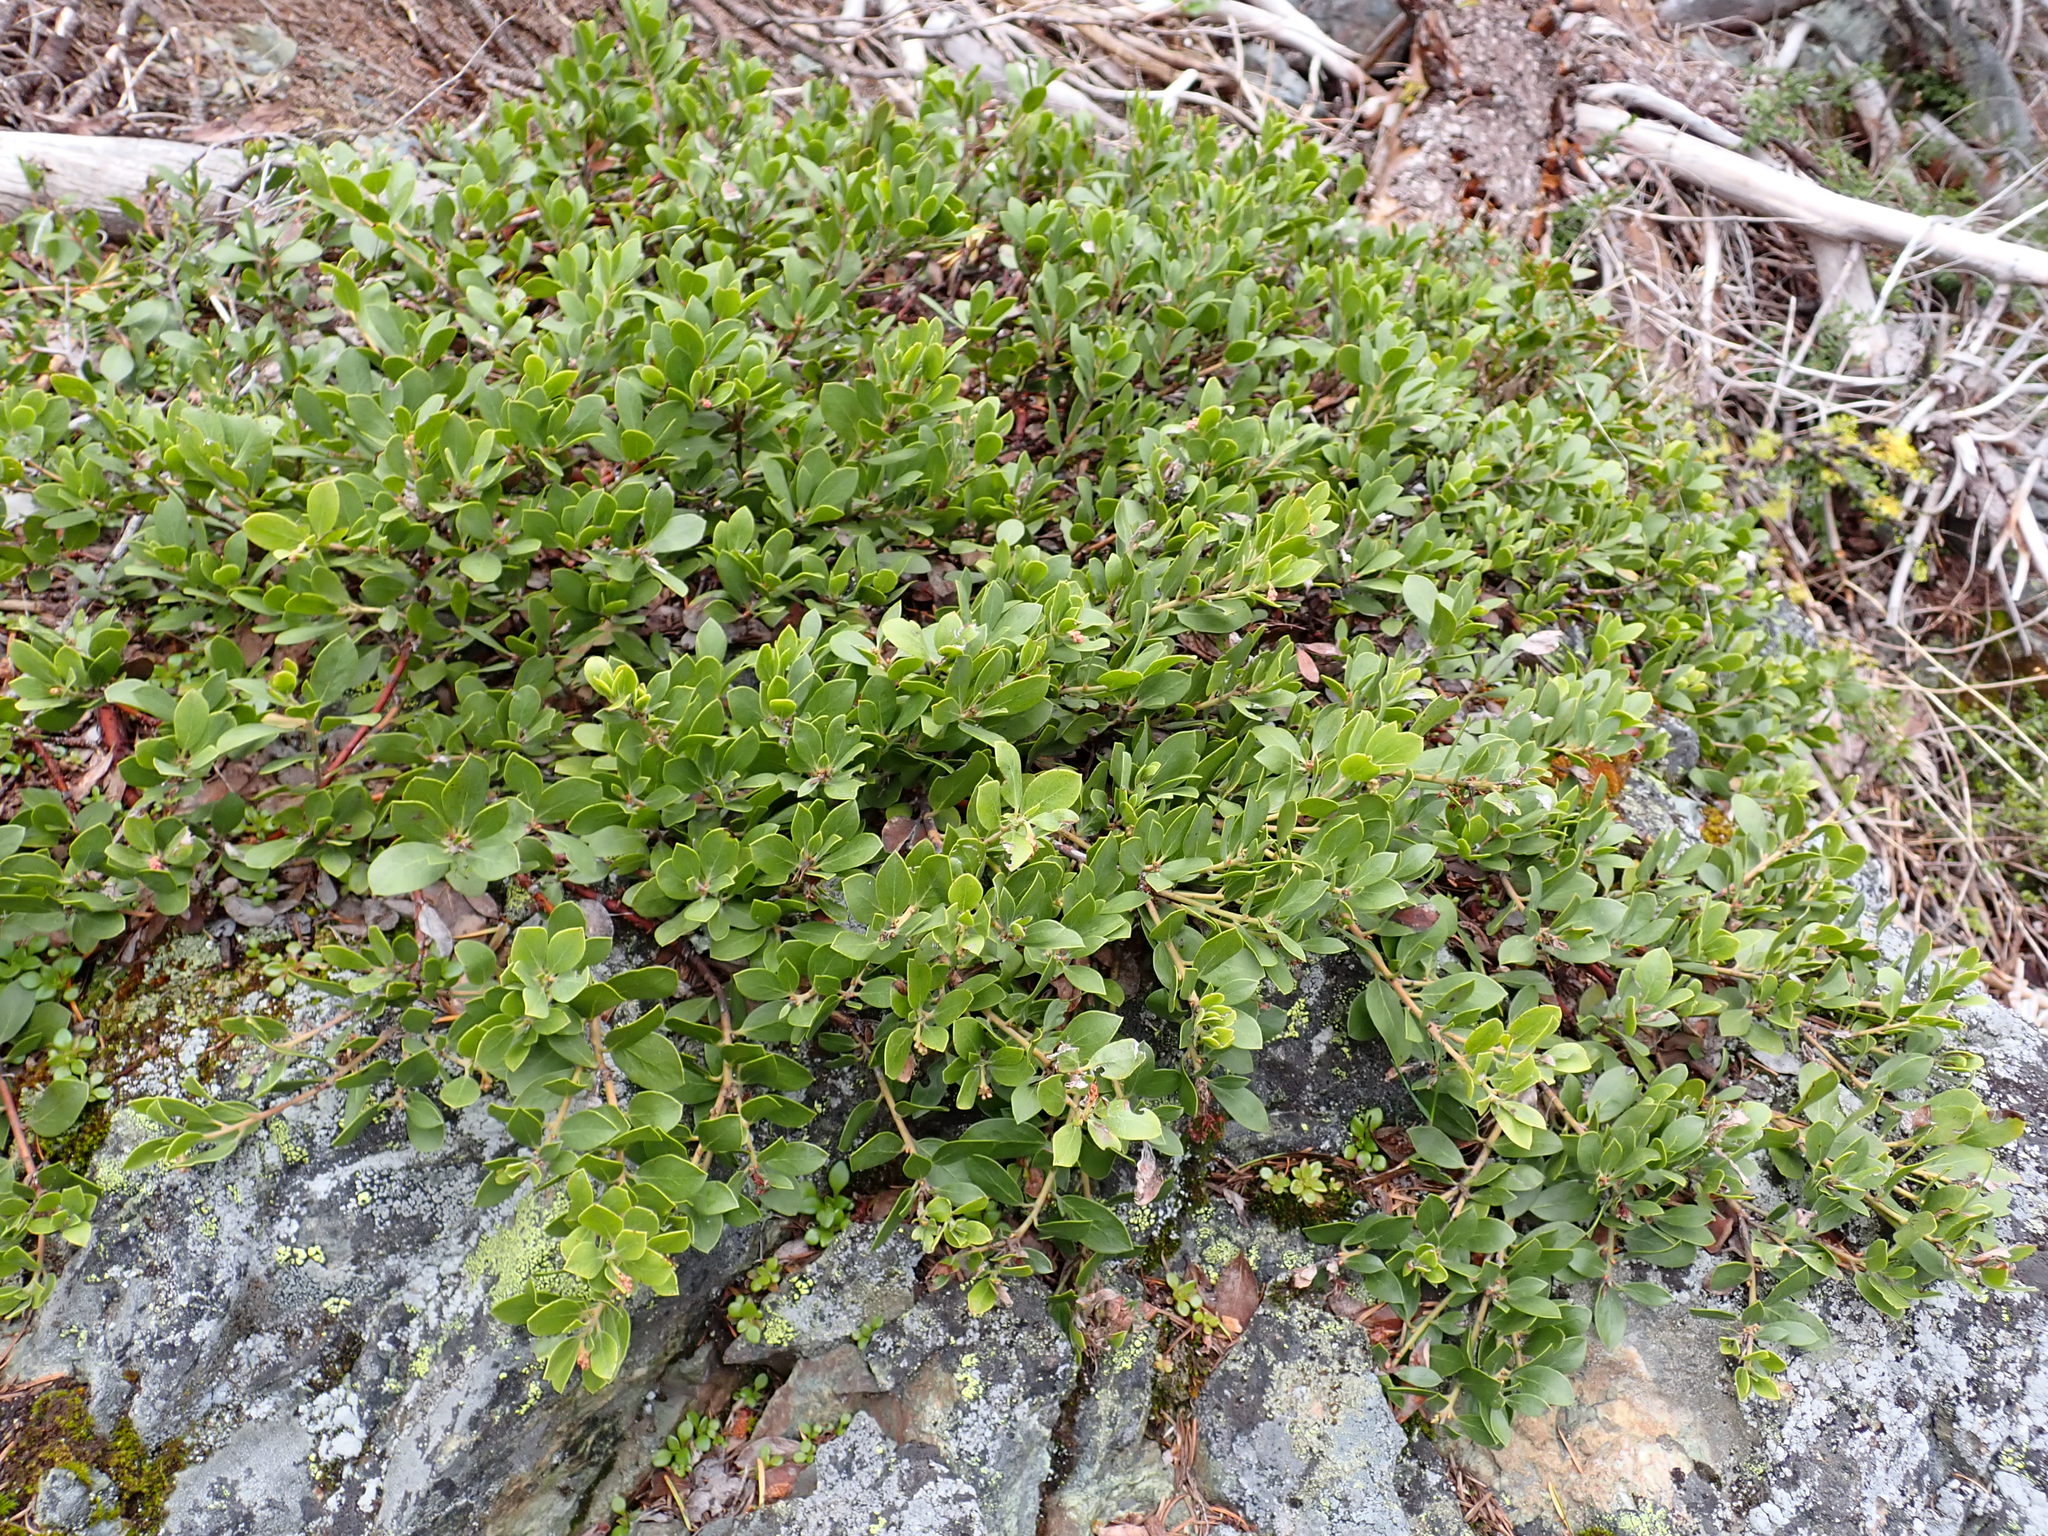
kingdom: Plantae
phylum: Tracheophyta
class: Magnoliopsida
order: Ericales
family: Ericaceae
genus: Arctostaphylos
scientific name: Arctostaphylos nevadensis
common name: Pinemat manzanita
